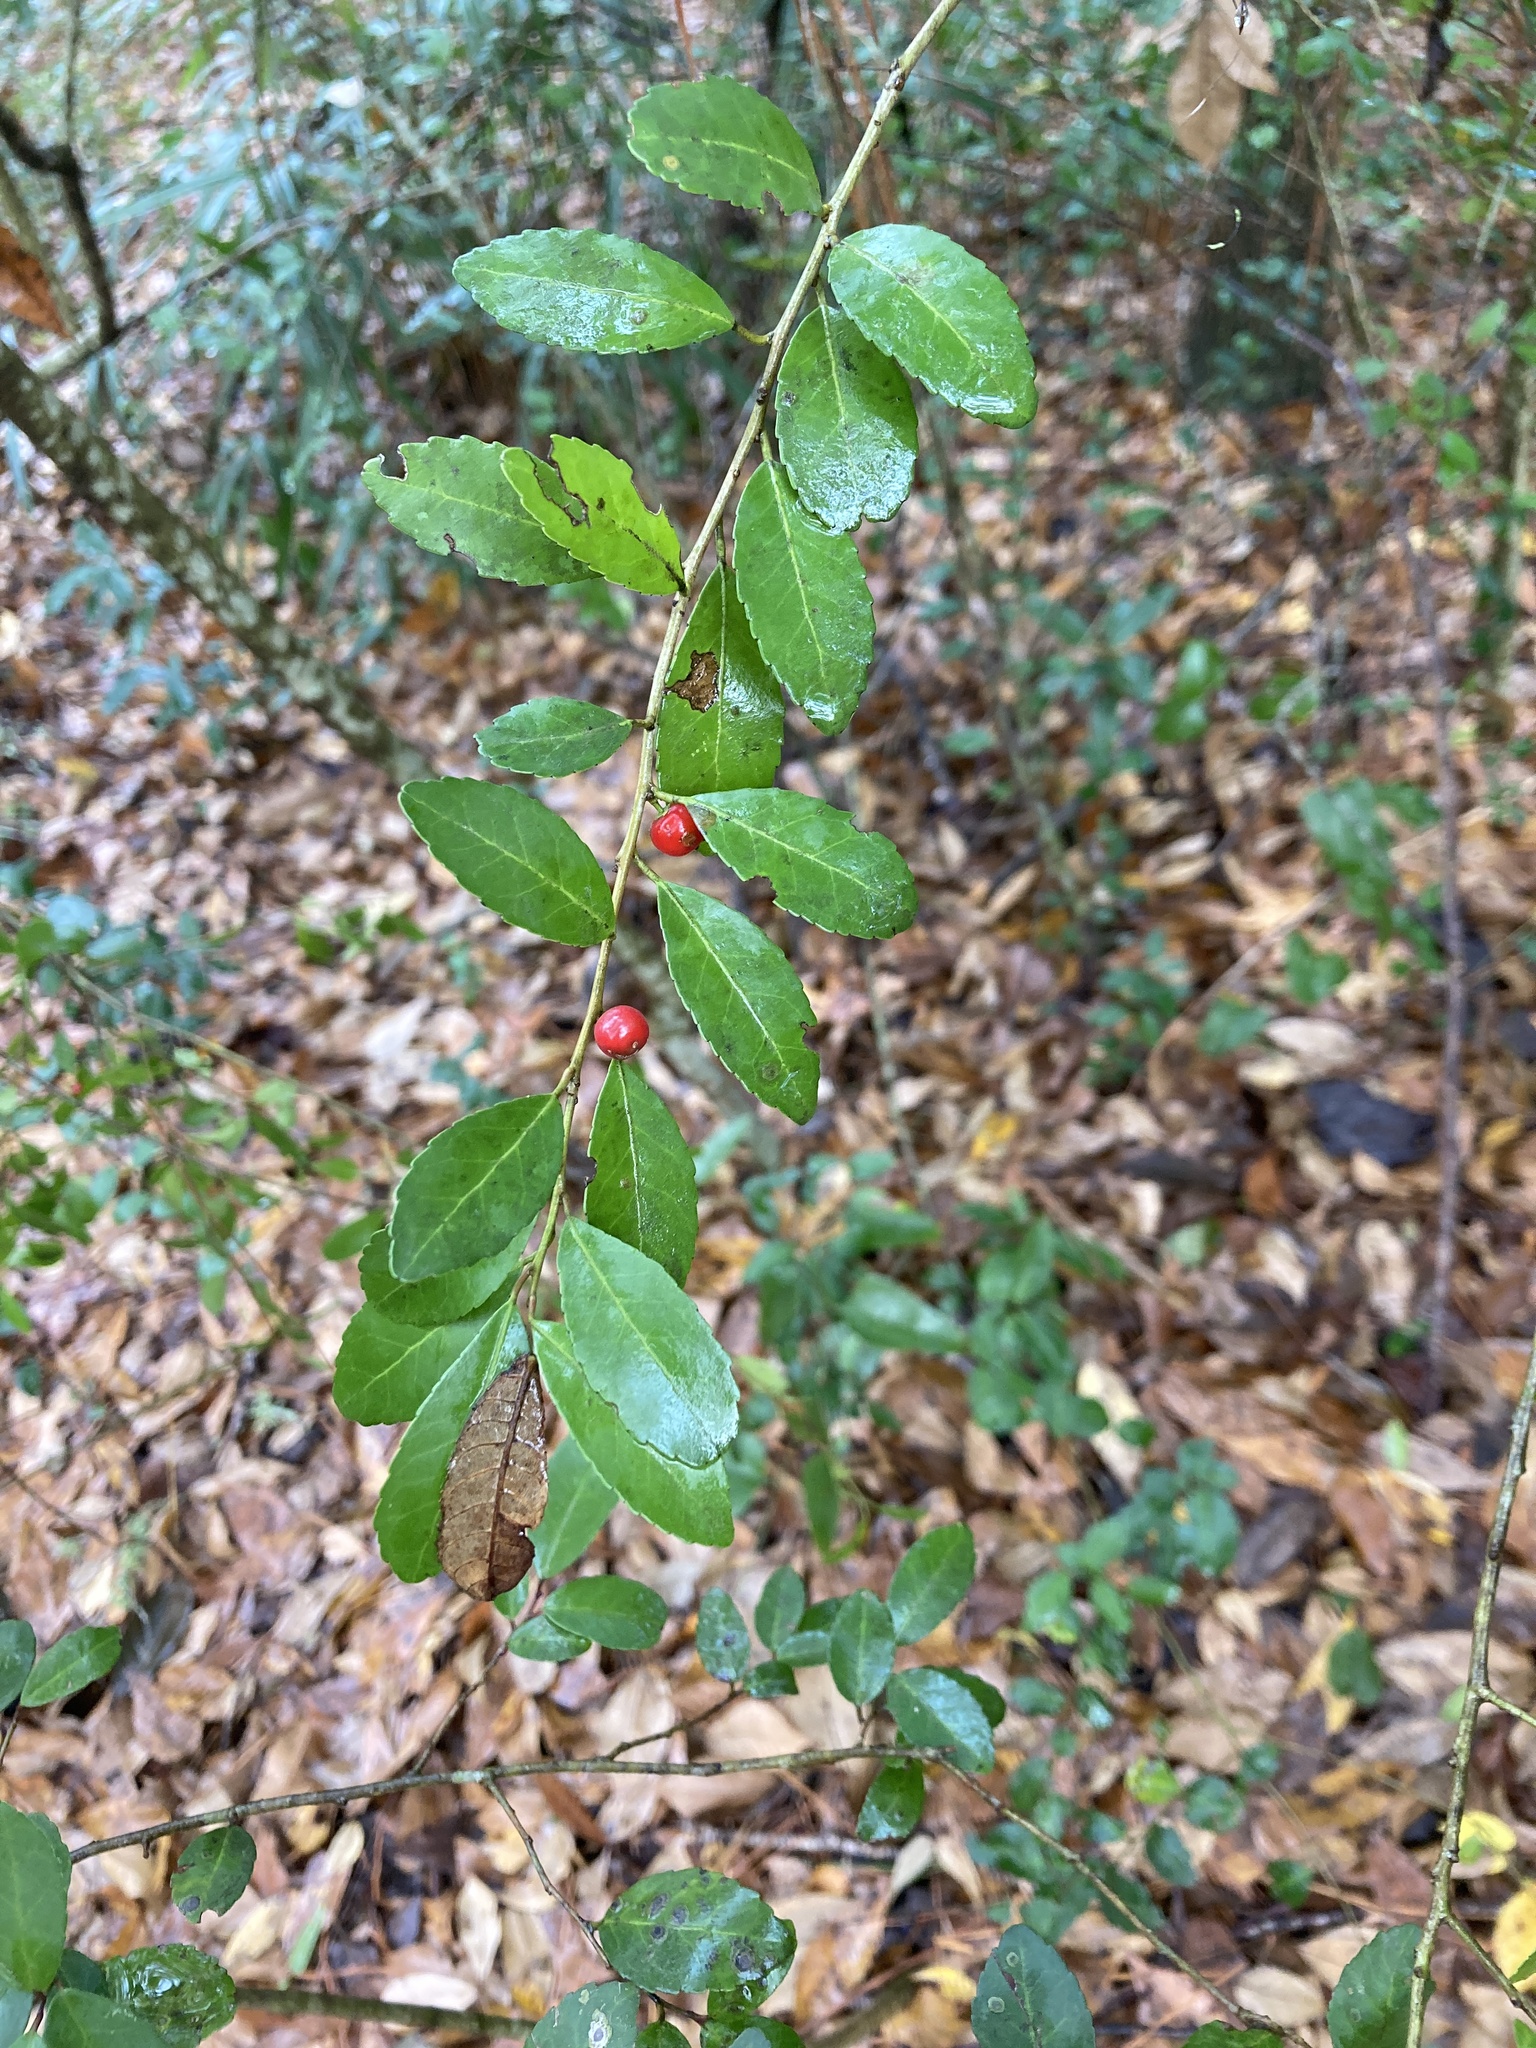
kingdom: Plantae
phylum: Tracheophyta
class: Magnoliopsida
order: Aquifoliales
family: Aquifoliaceae
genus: Ilex
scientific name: Ilex vomitoria
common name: Yaupon holly
